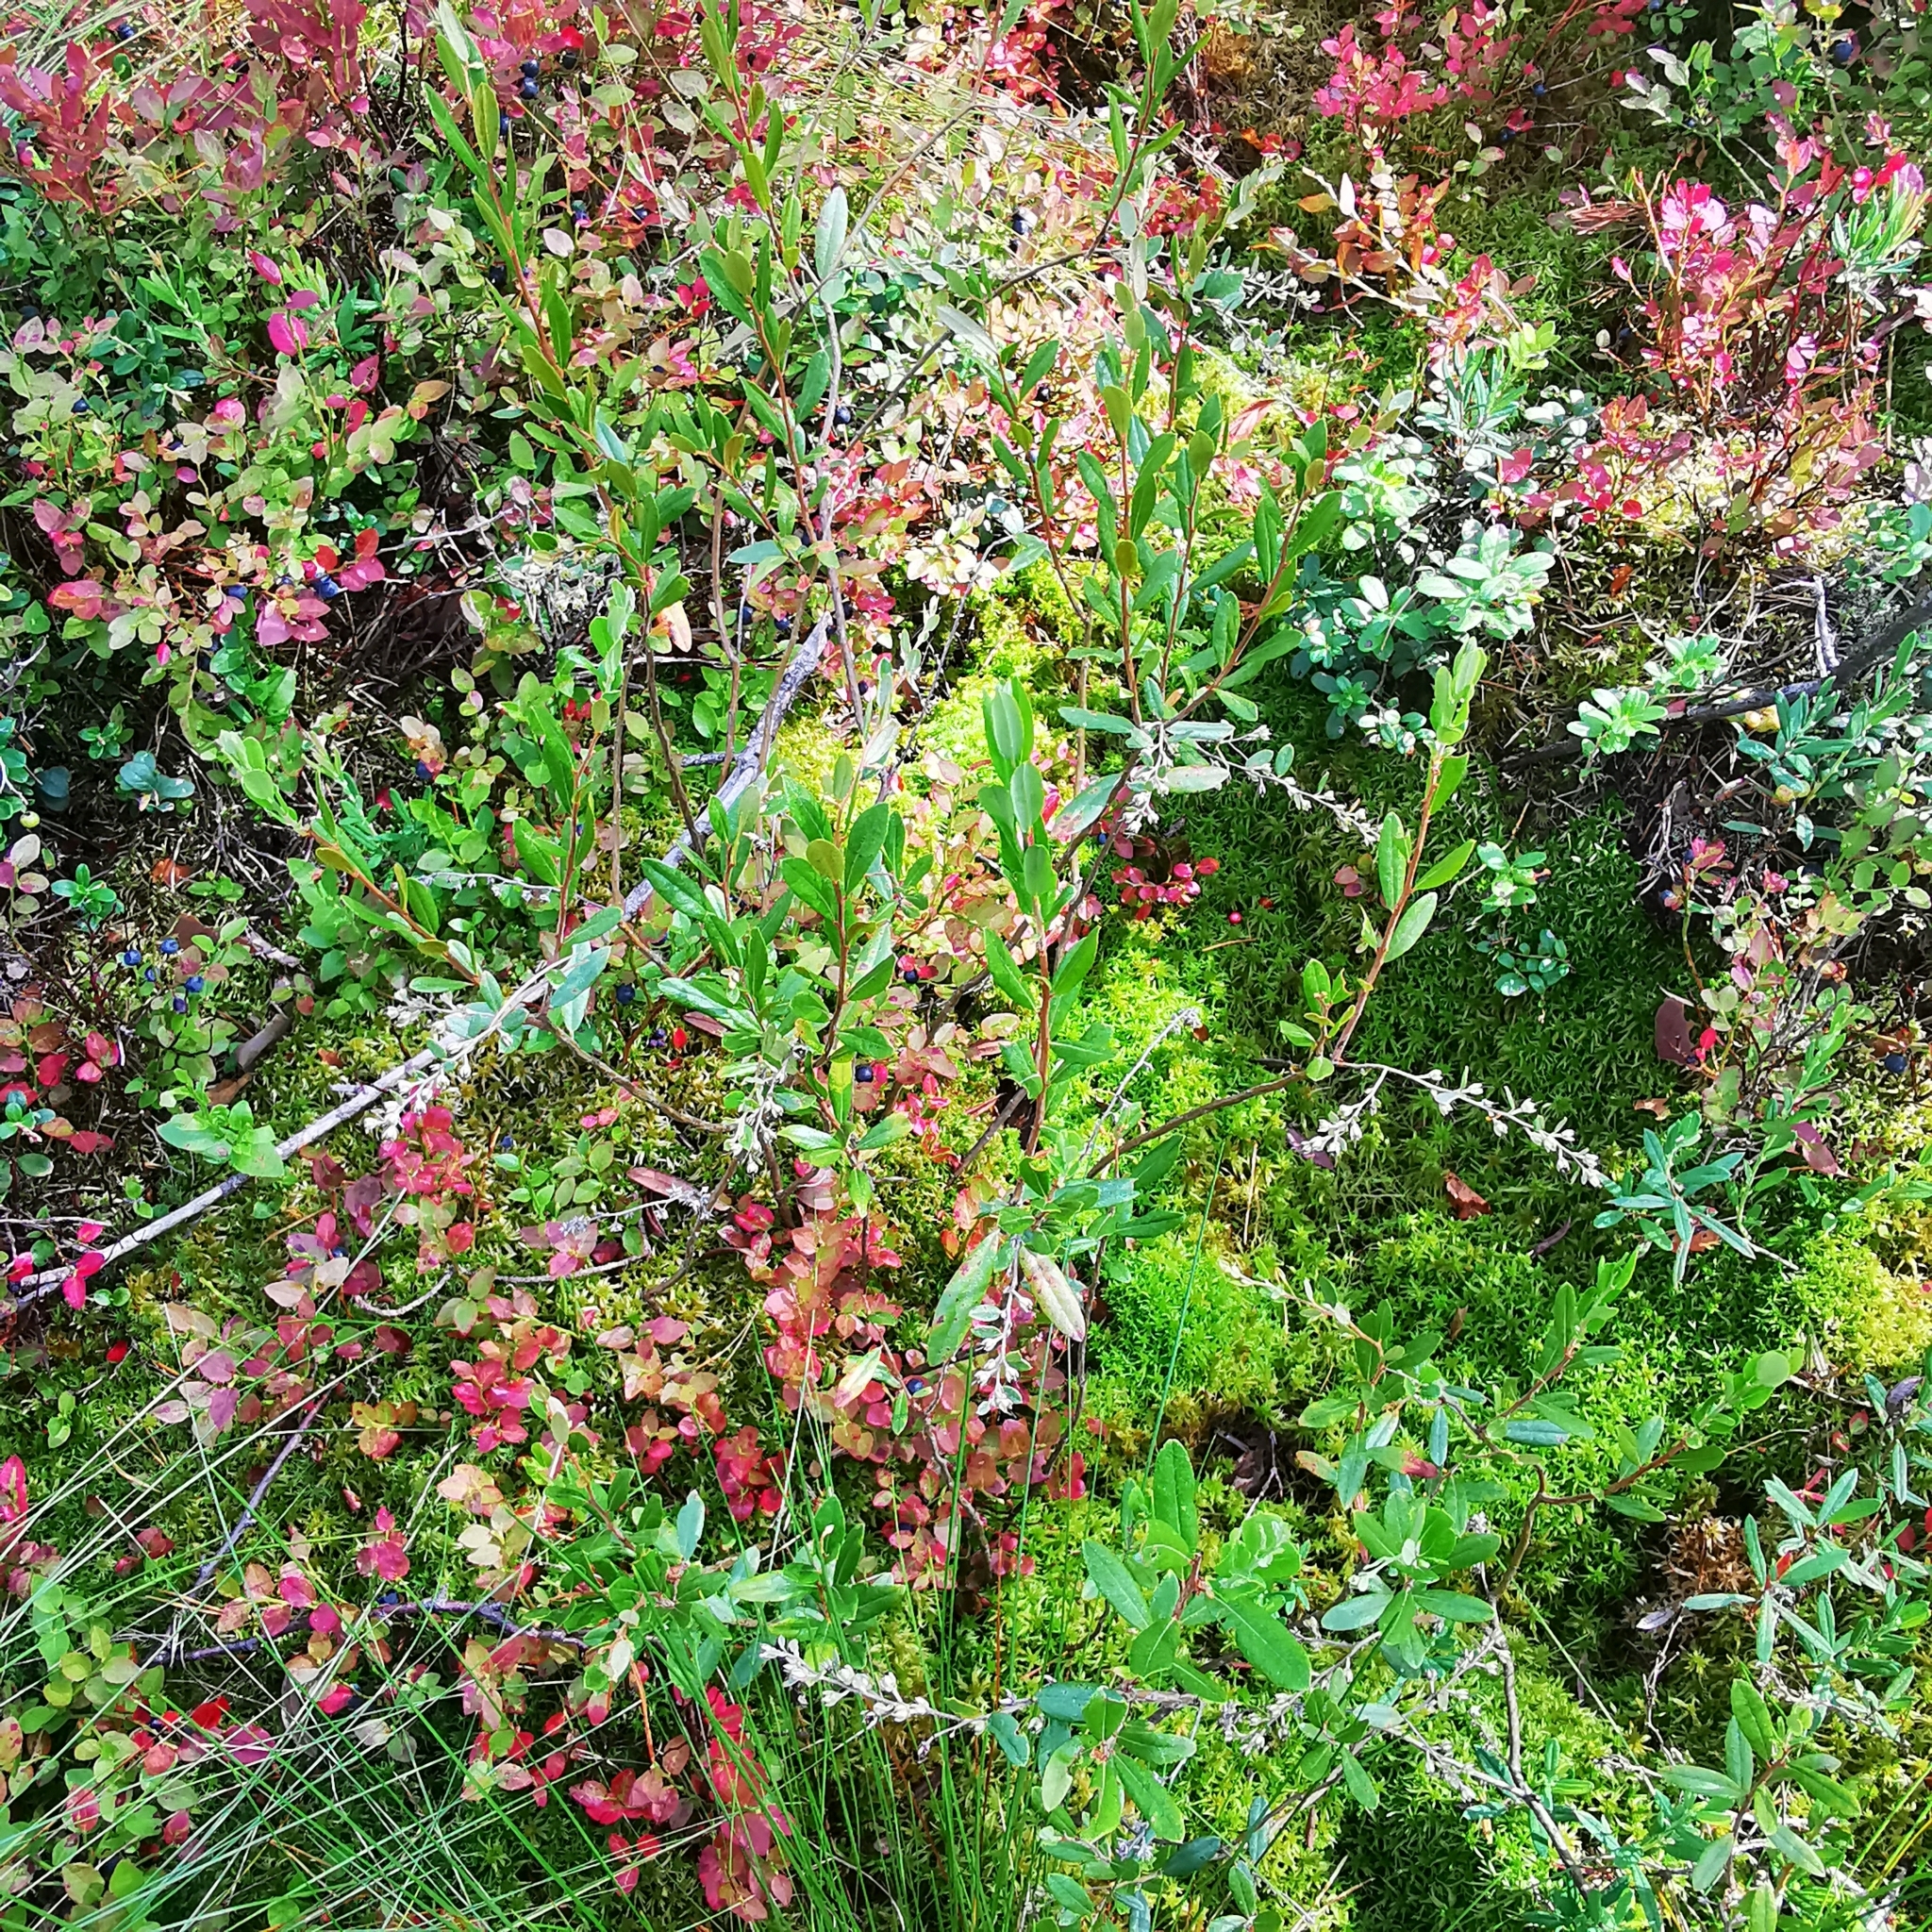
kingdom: Plantae
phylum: Tracheophyta
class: Magnoliopsida
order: Ericales
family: Ericaceae
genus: Chamaedaphne
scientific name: Chamaedaphne calyculata
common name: Leatherleaf
